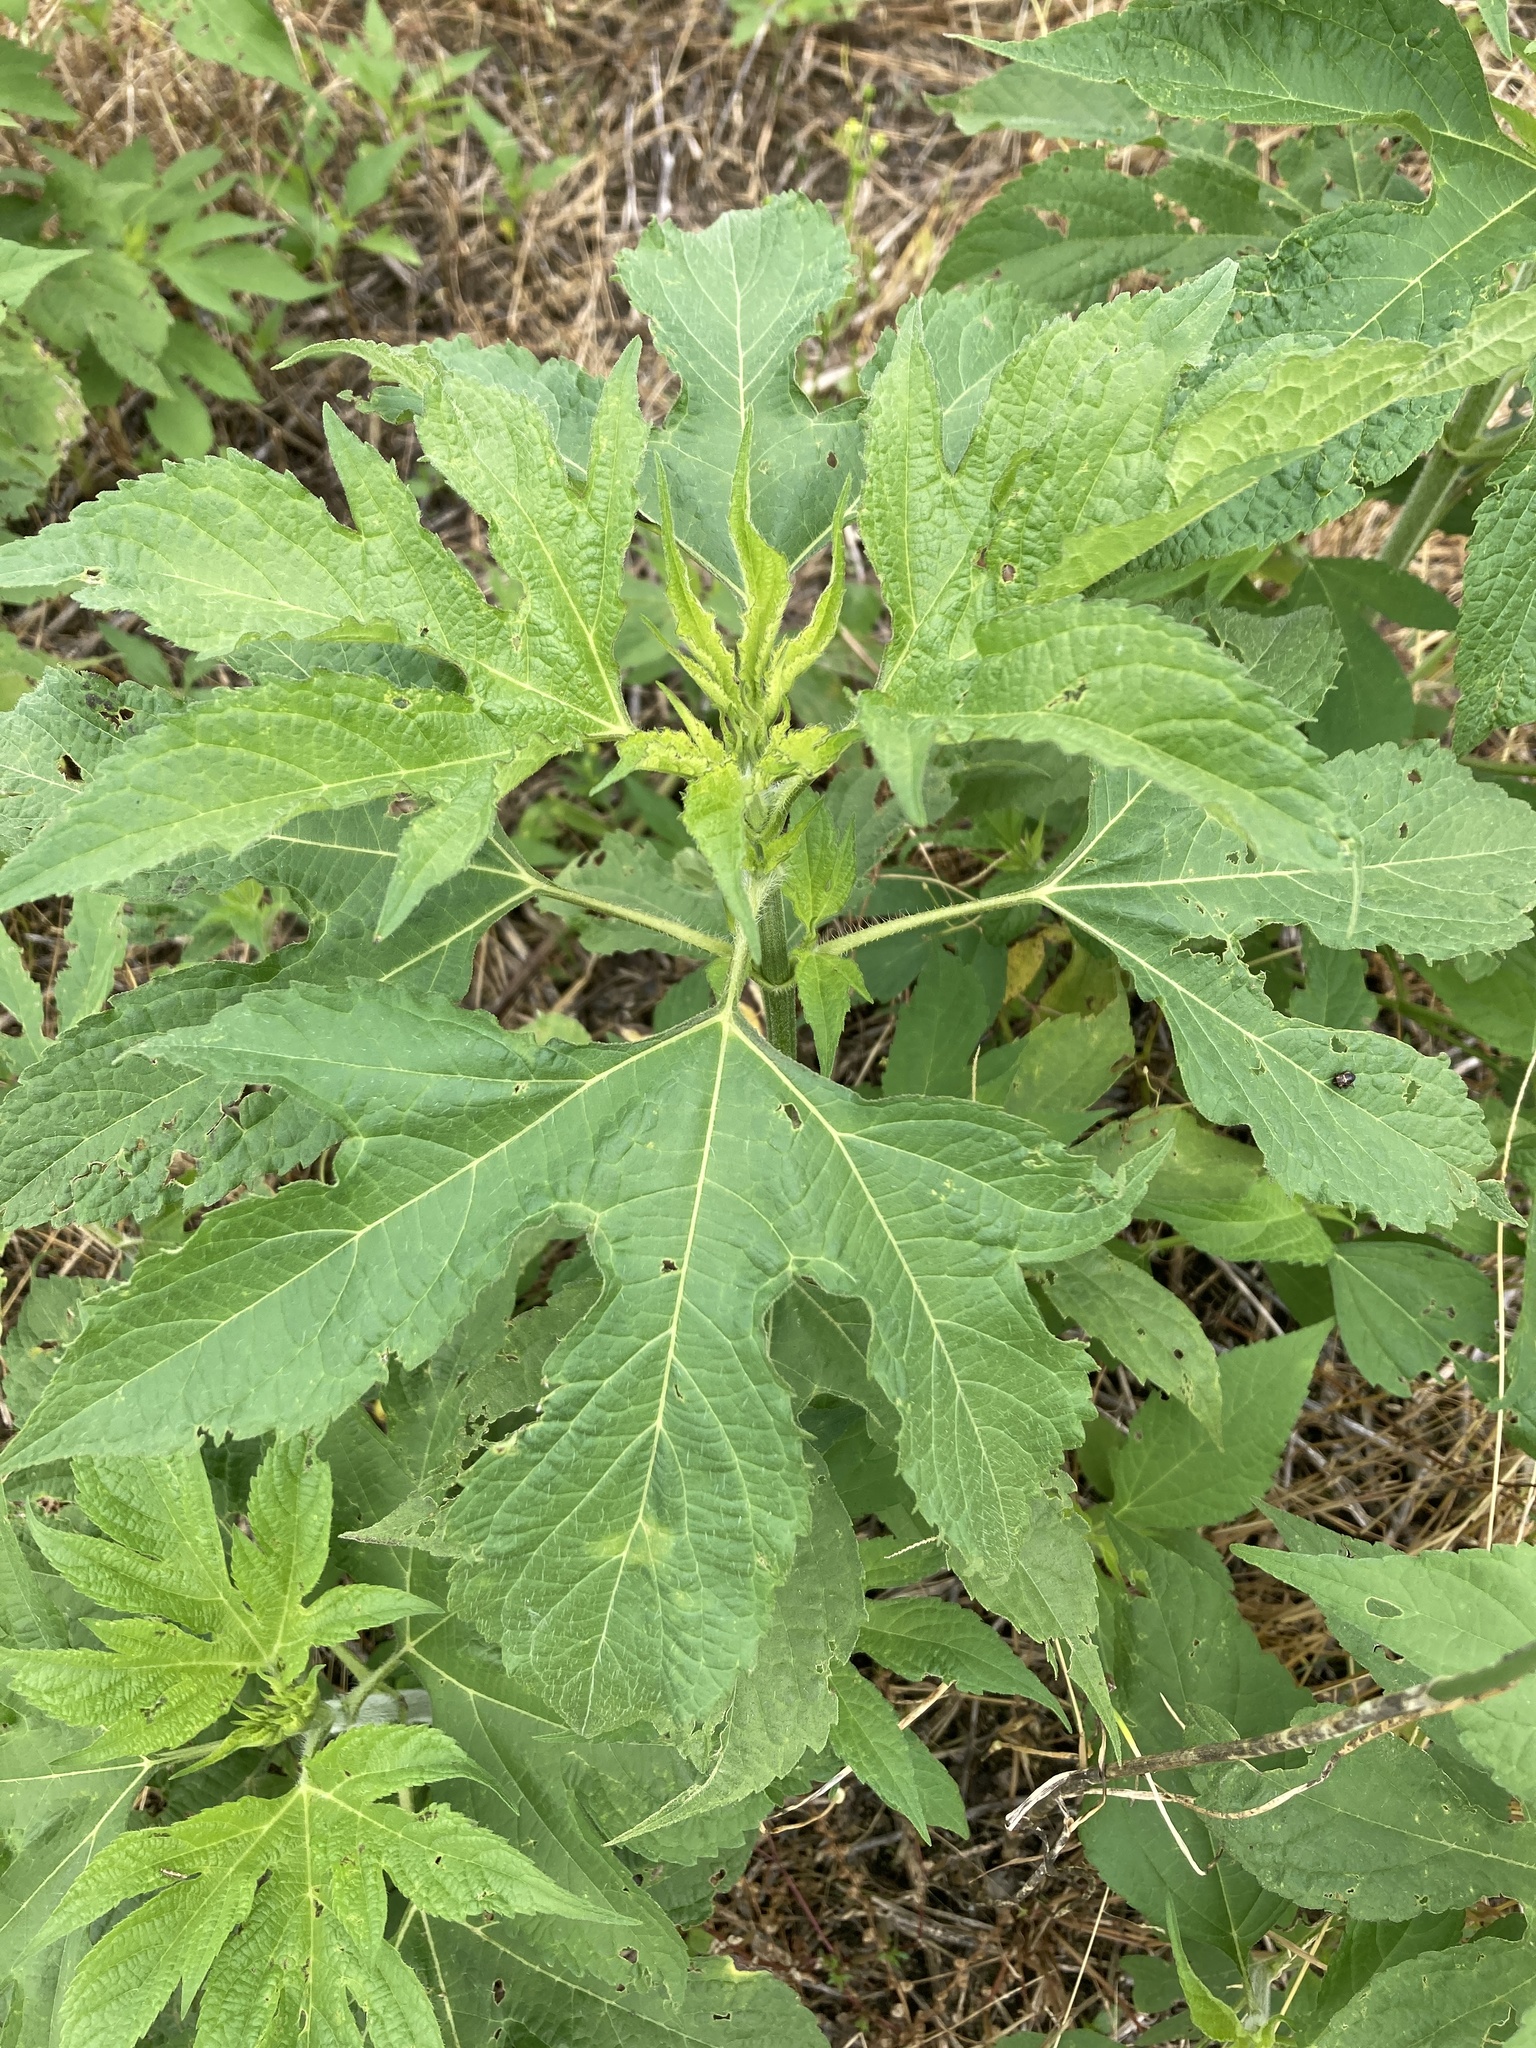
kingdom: Plantae
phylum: Tracheophyta
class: Magnoliopsida
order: Asterales
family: Asteraceae
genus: Ambrosia
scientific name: Ambrosia trifida
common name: Giant ragweed
